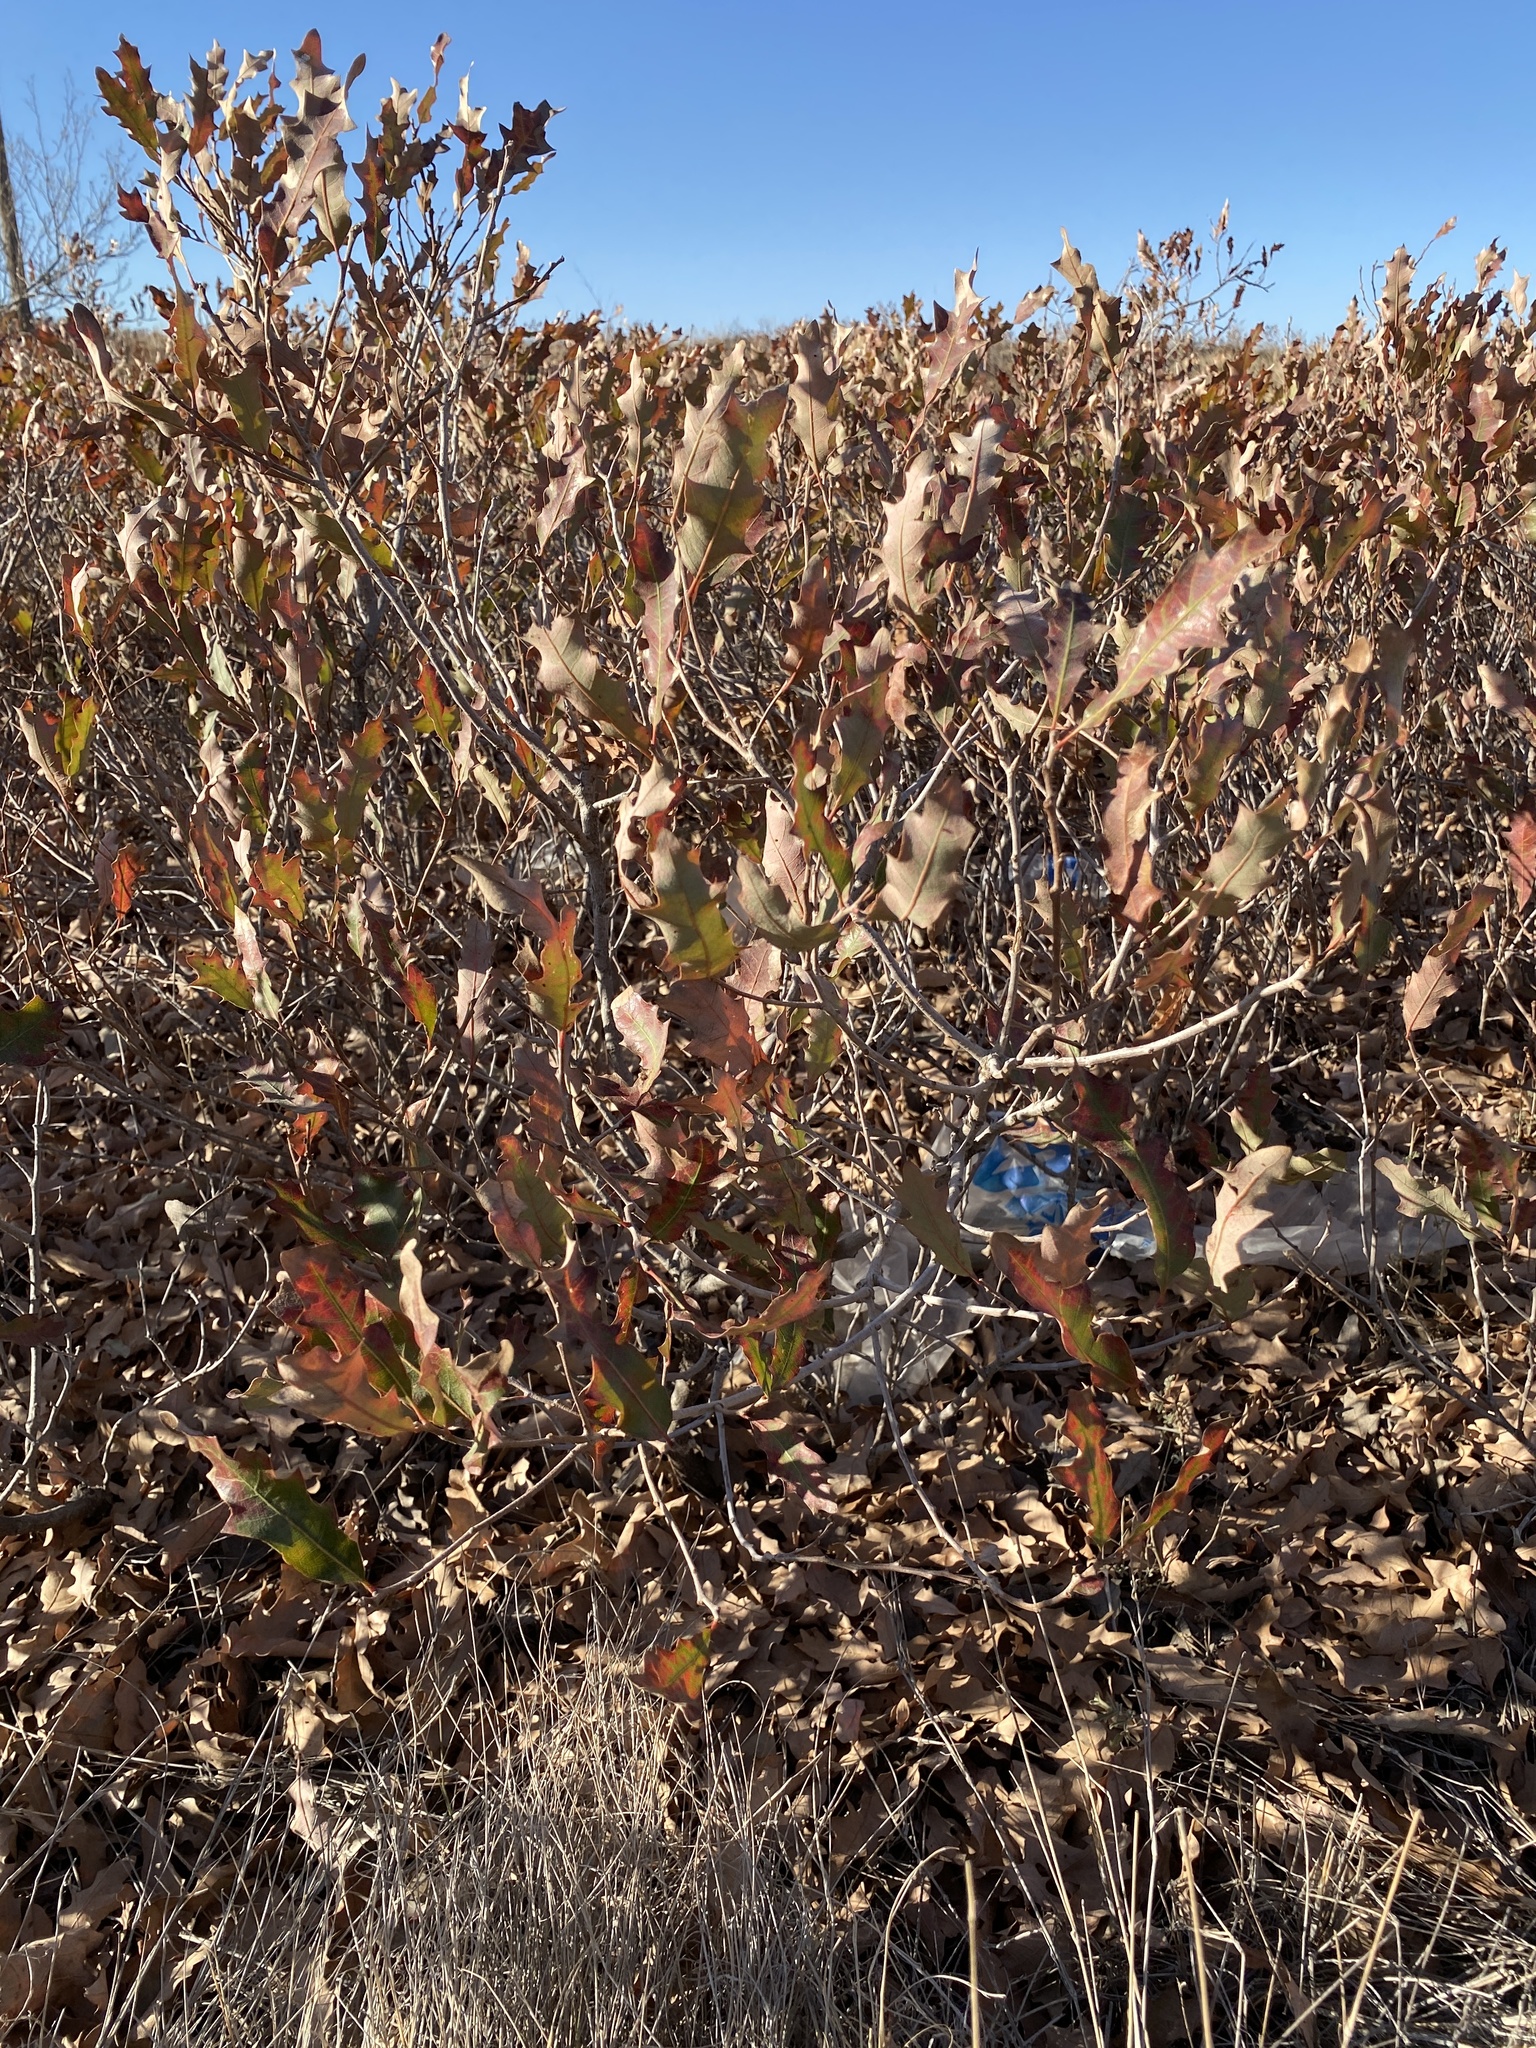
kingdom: Plantae
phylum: Tracheophyta
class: Magnoliopsida
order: Fagales
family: Fagaceae
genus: Quercus
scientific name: Quercus havardii
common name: Shinnery oak
